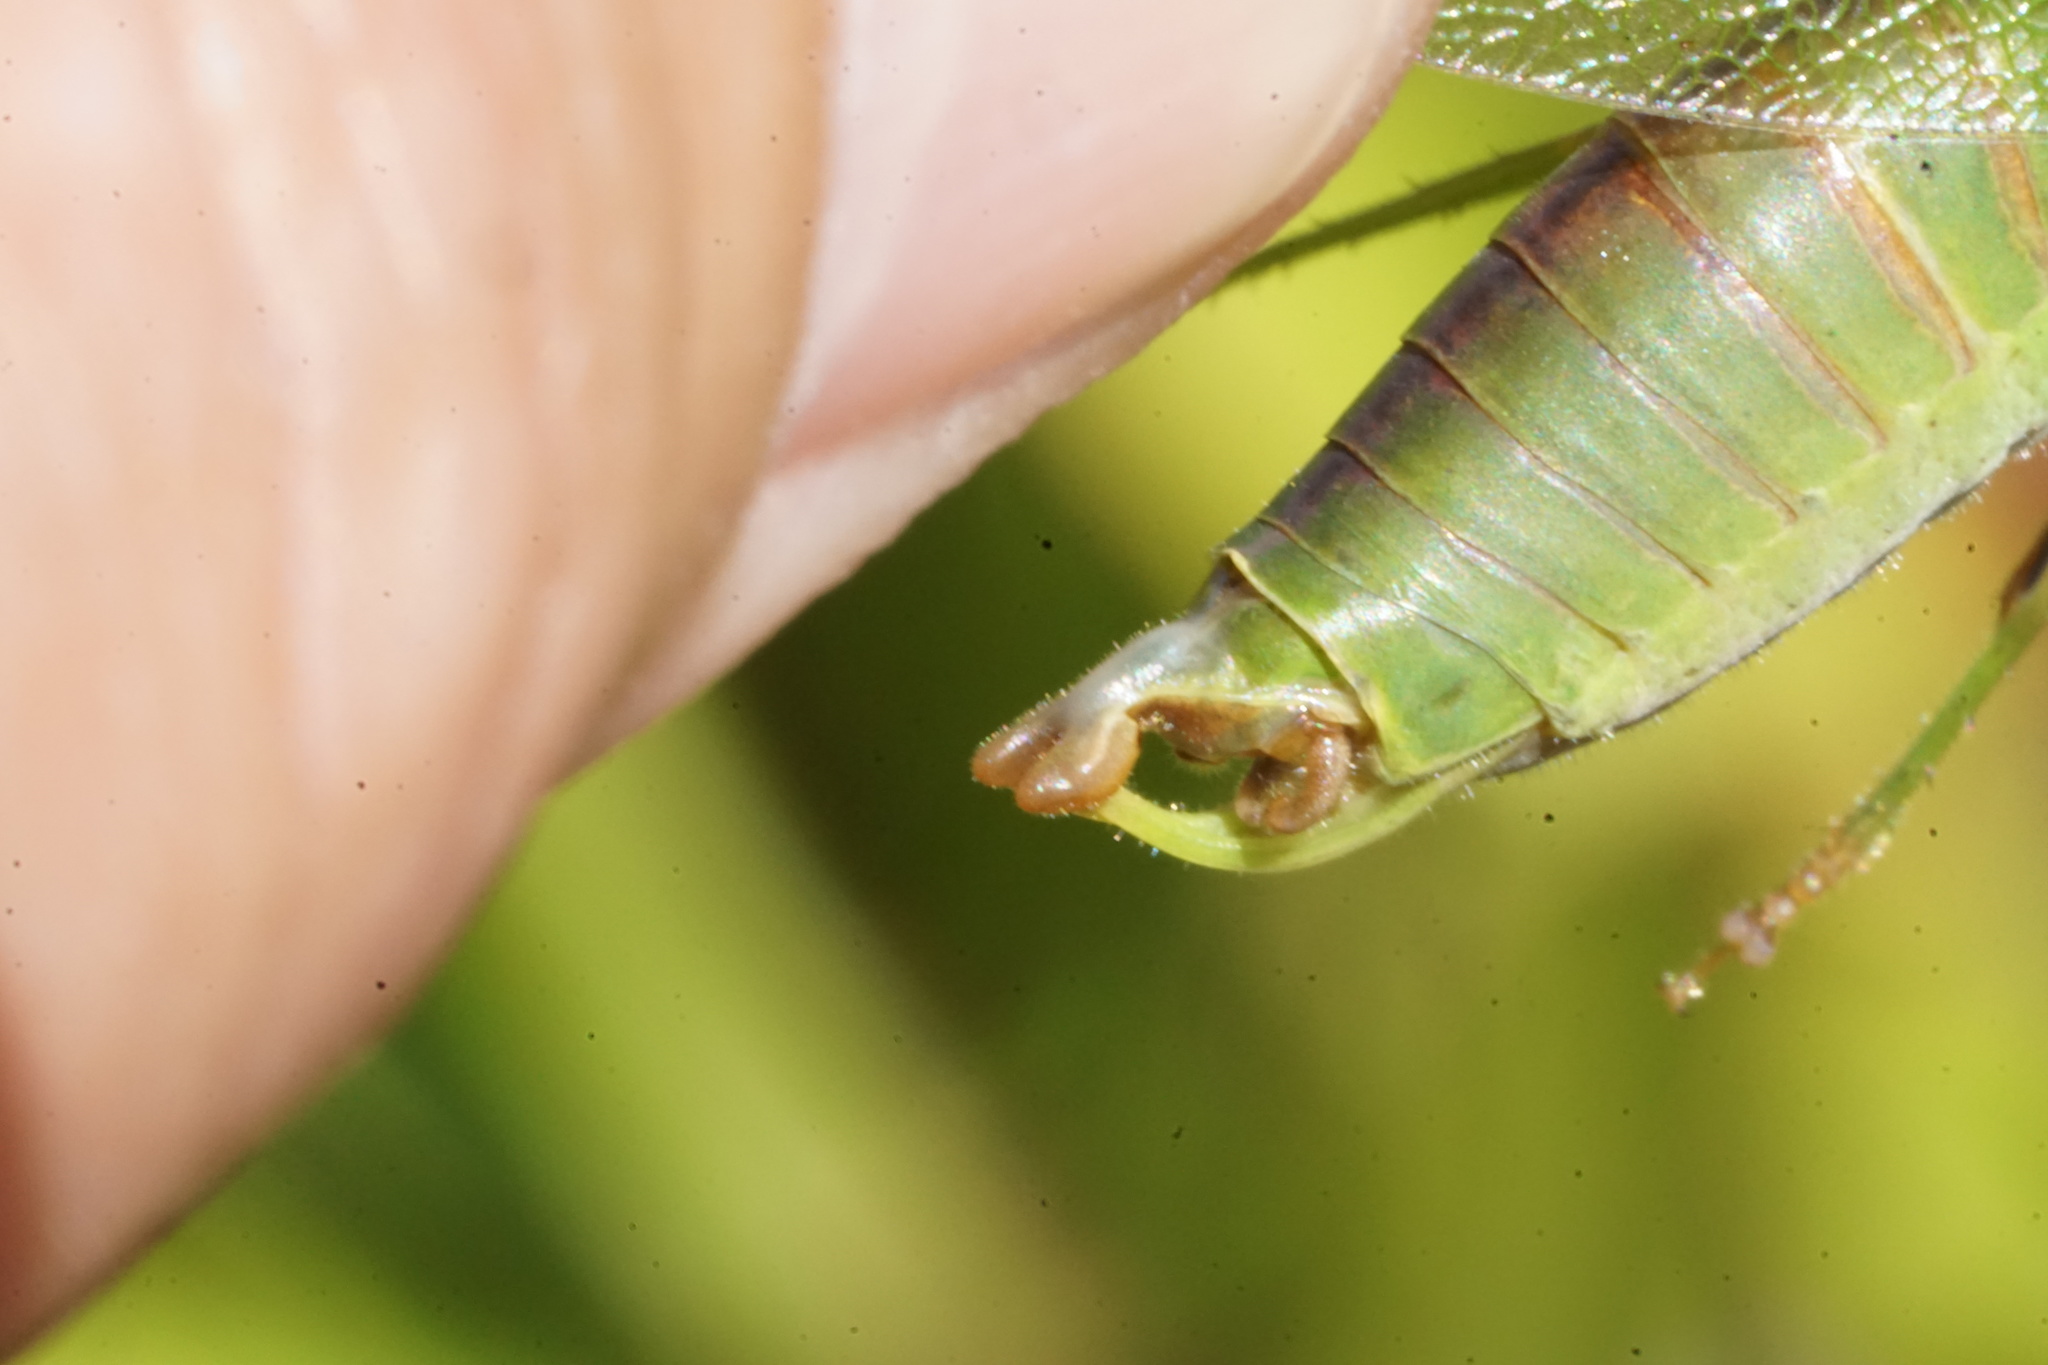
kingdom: Animalia
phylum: Arthropoda
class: Insecta
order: Orthoptera
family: Tettigoniidae
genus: Scudderia
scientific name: Scudderia furcata
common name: Fork-tailed bush katydid
